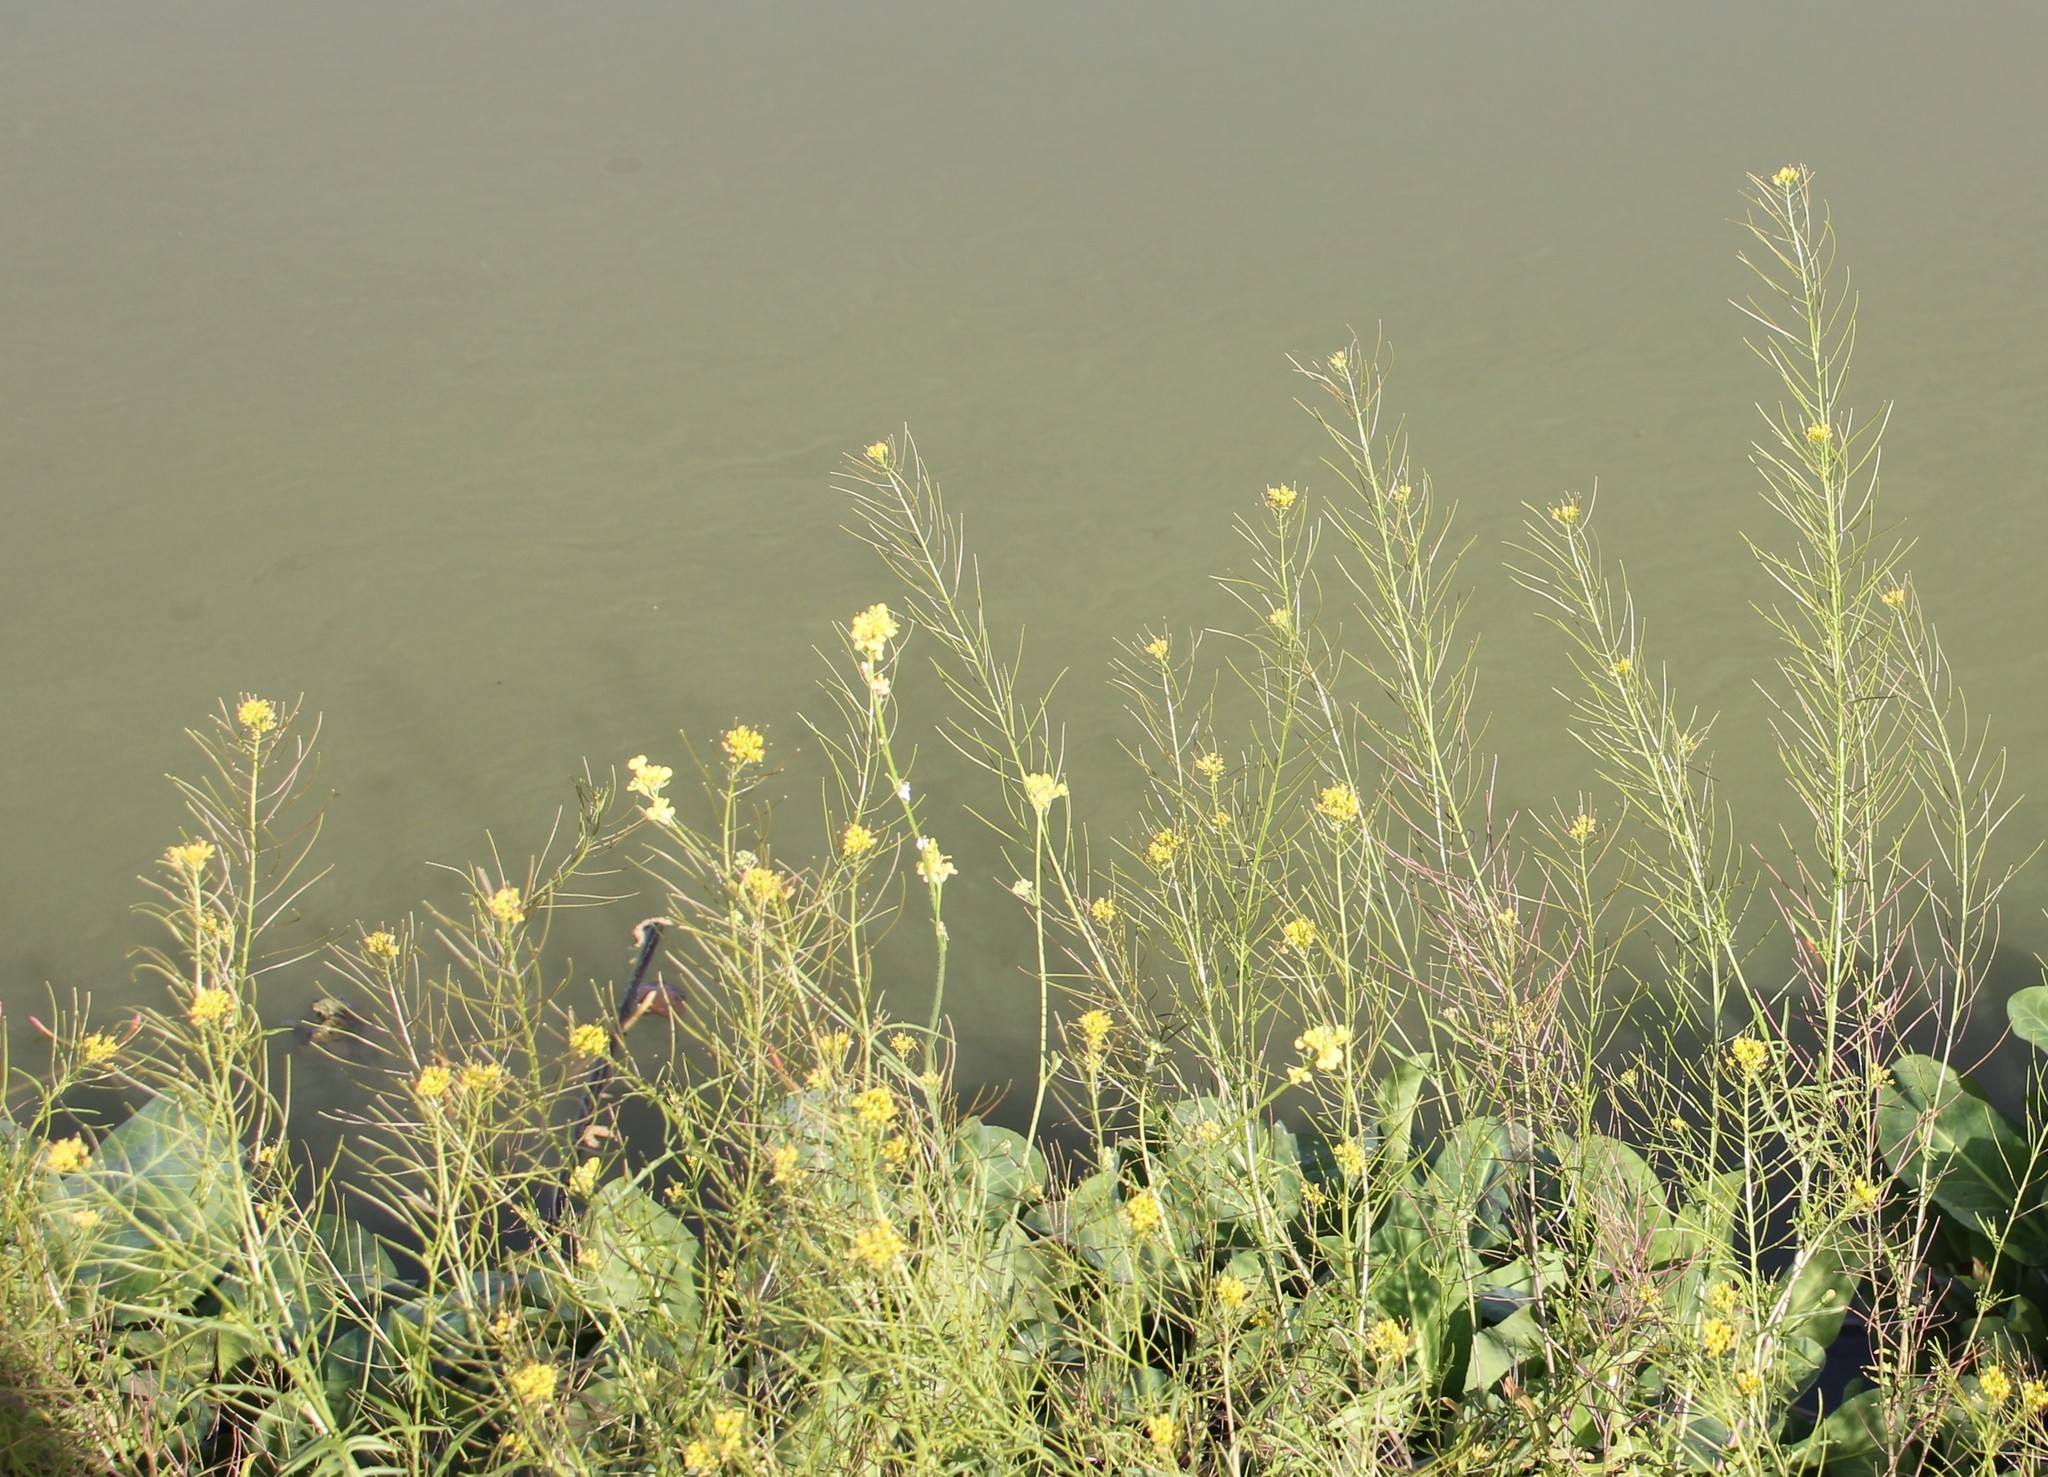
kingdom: Plantae
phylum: Tracheophyta
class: Magnoliopsida
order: Brassicales
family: Brassicaceae
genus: Sisymbrium
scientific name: Sisymbrium irio
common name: London rocket
